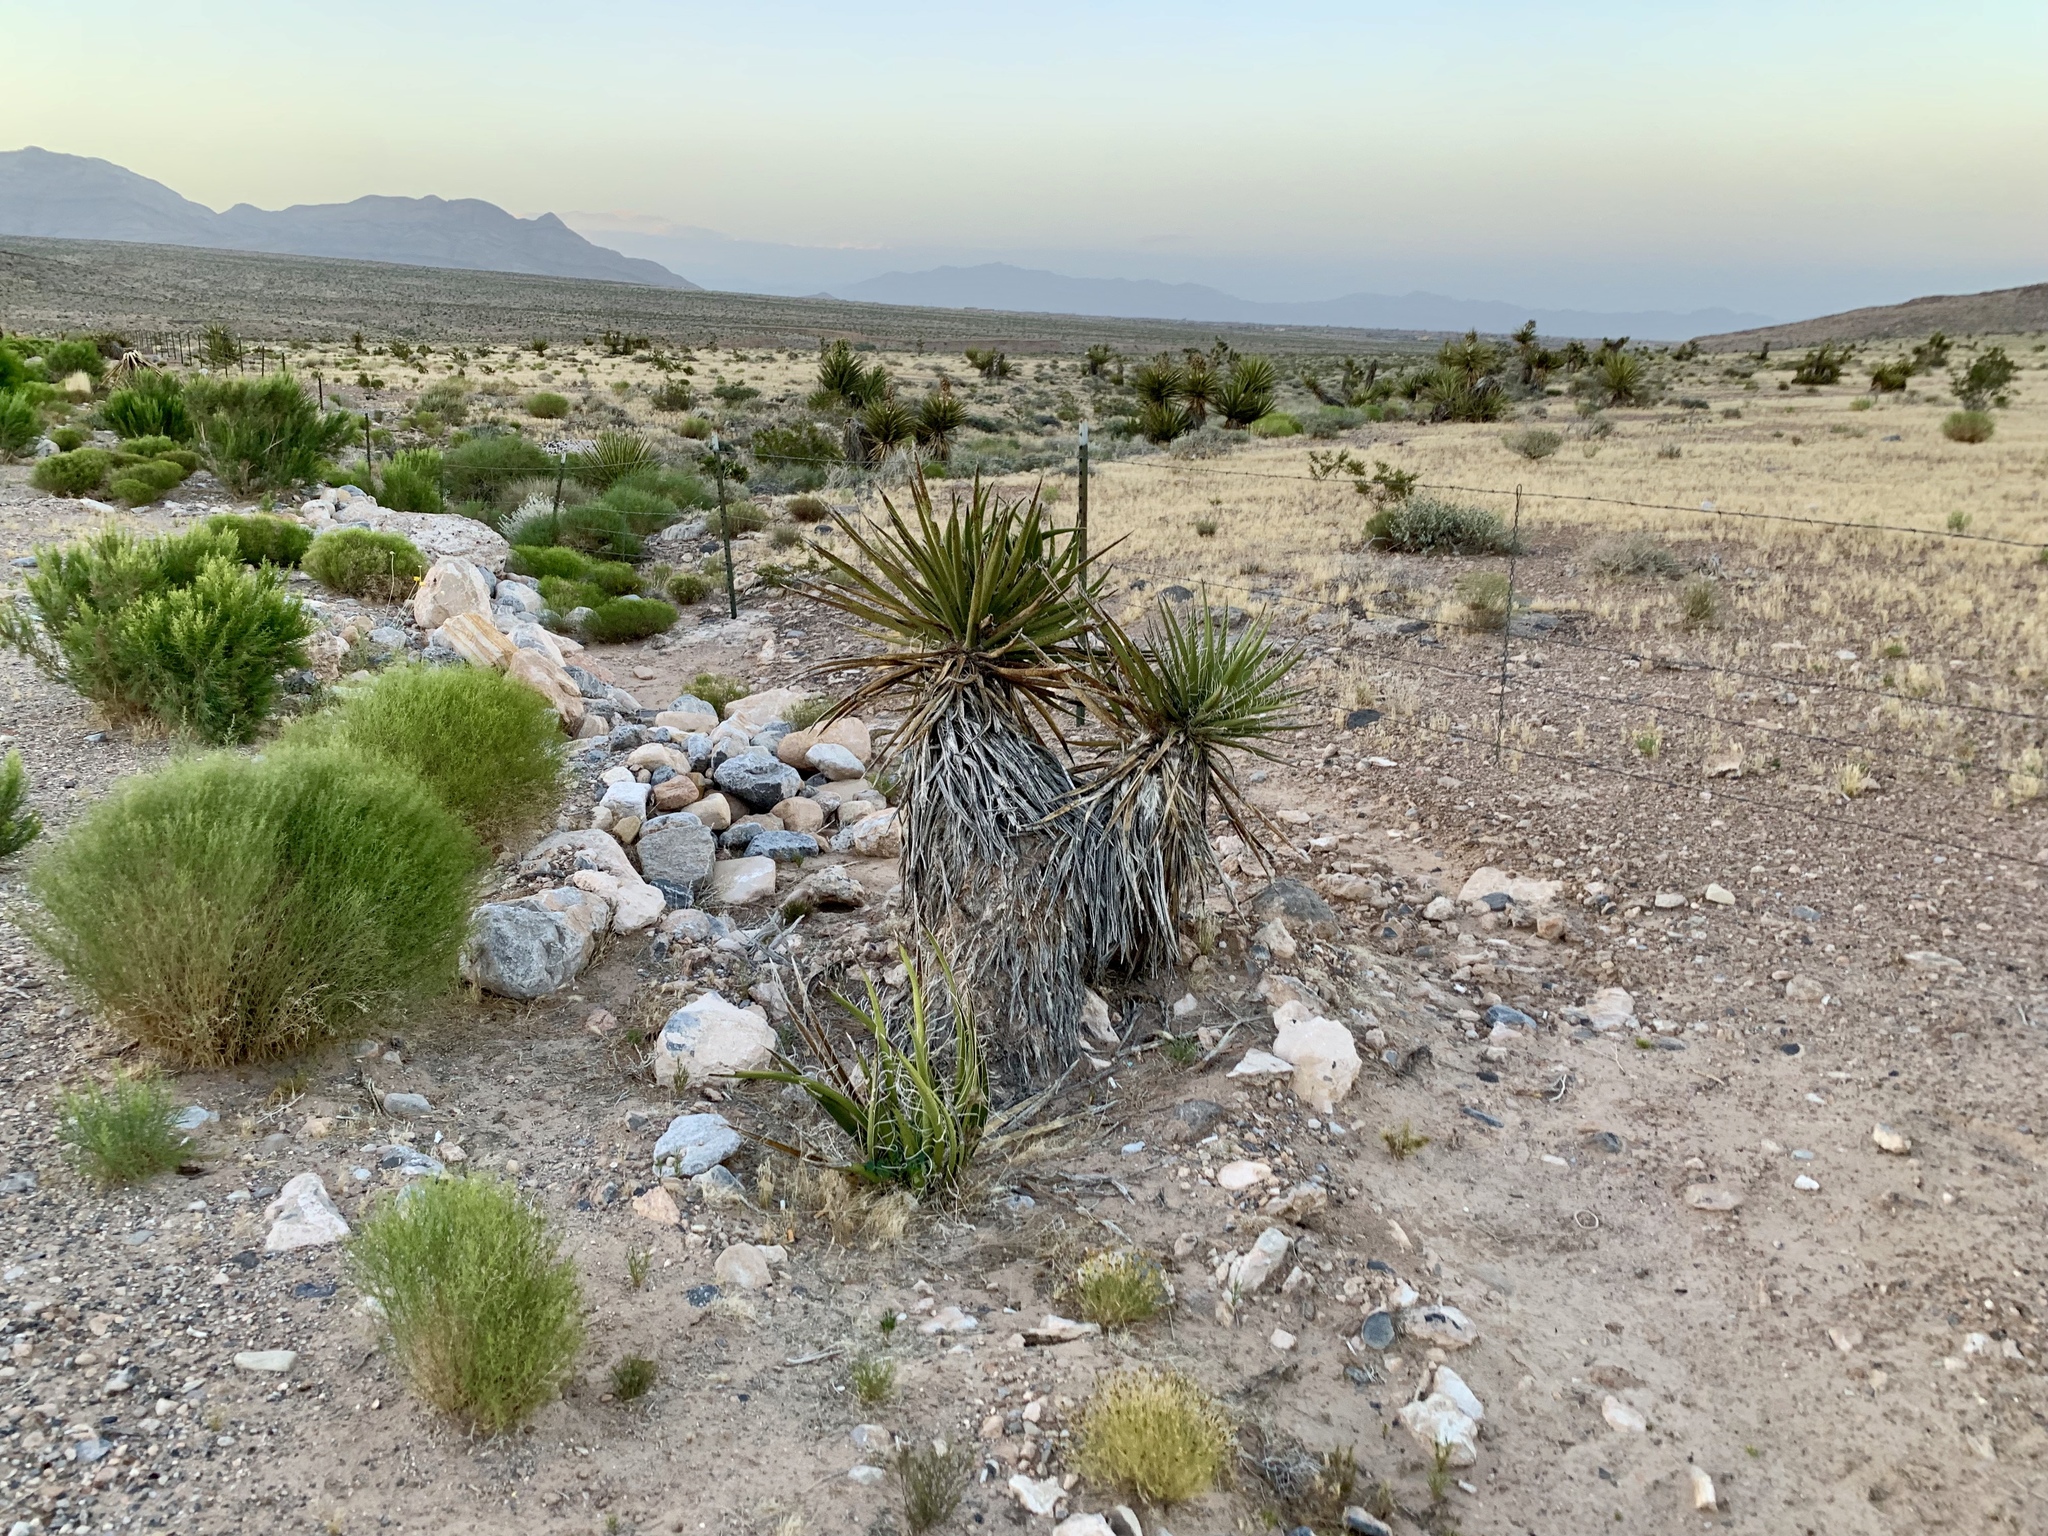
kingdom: Plantae
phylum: Tracheophyta
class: Liliopsida
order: Asparagales
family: Asparagaceae
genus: Yucca
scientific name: Yucca schidigera
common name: Mojave yucca
